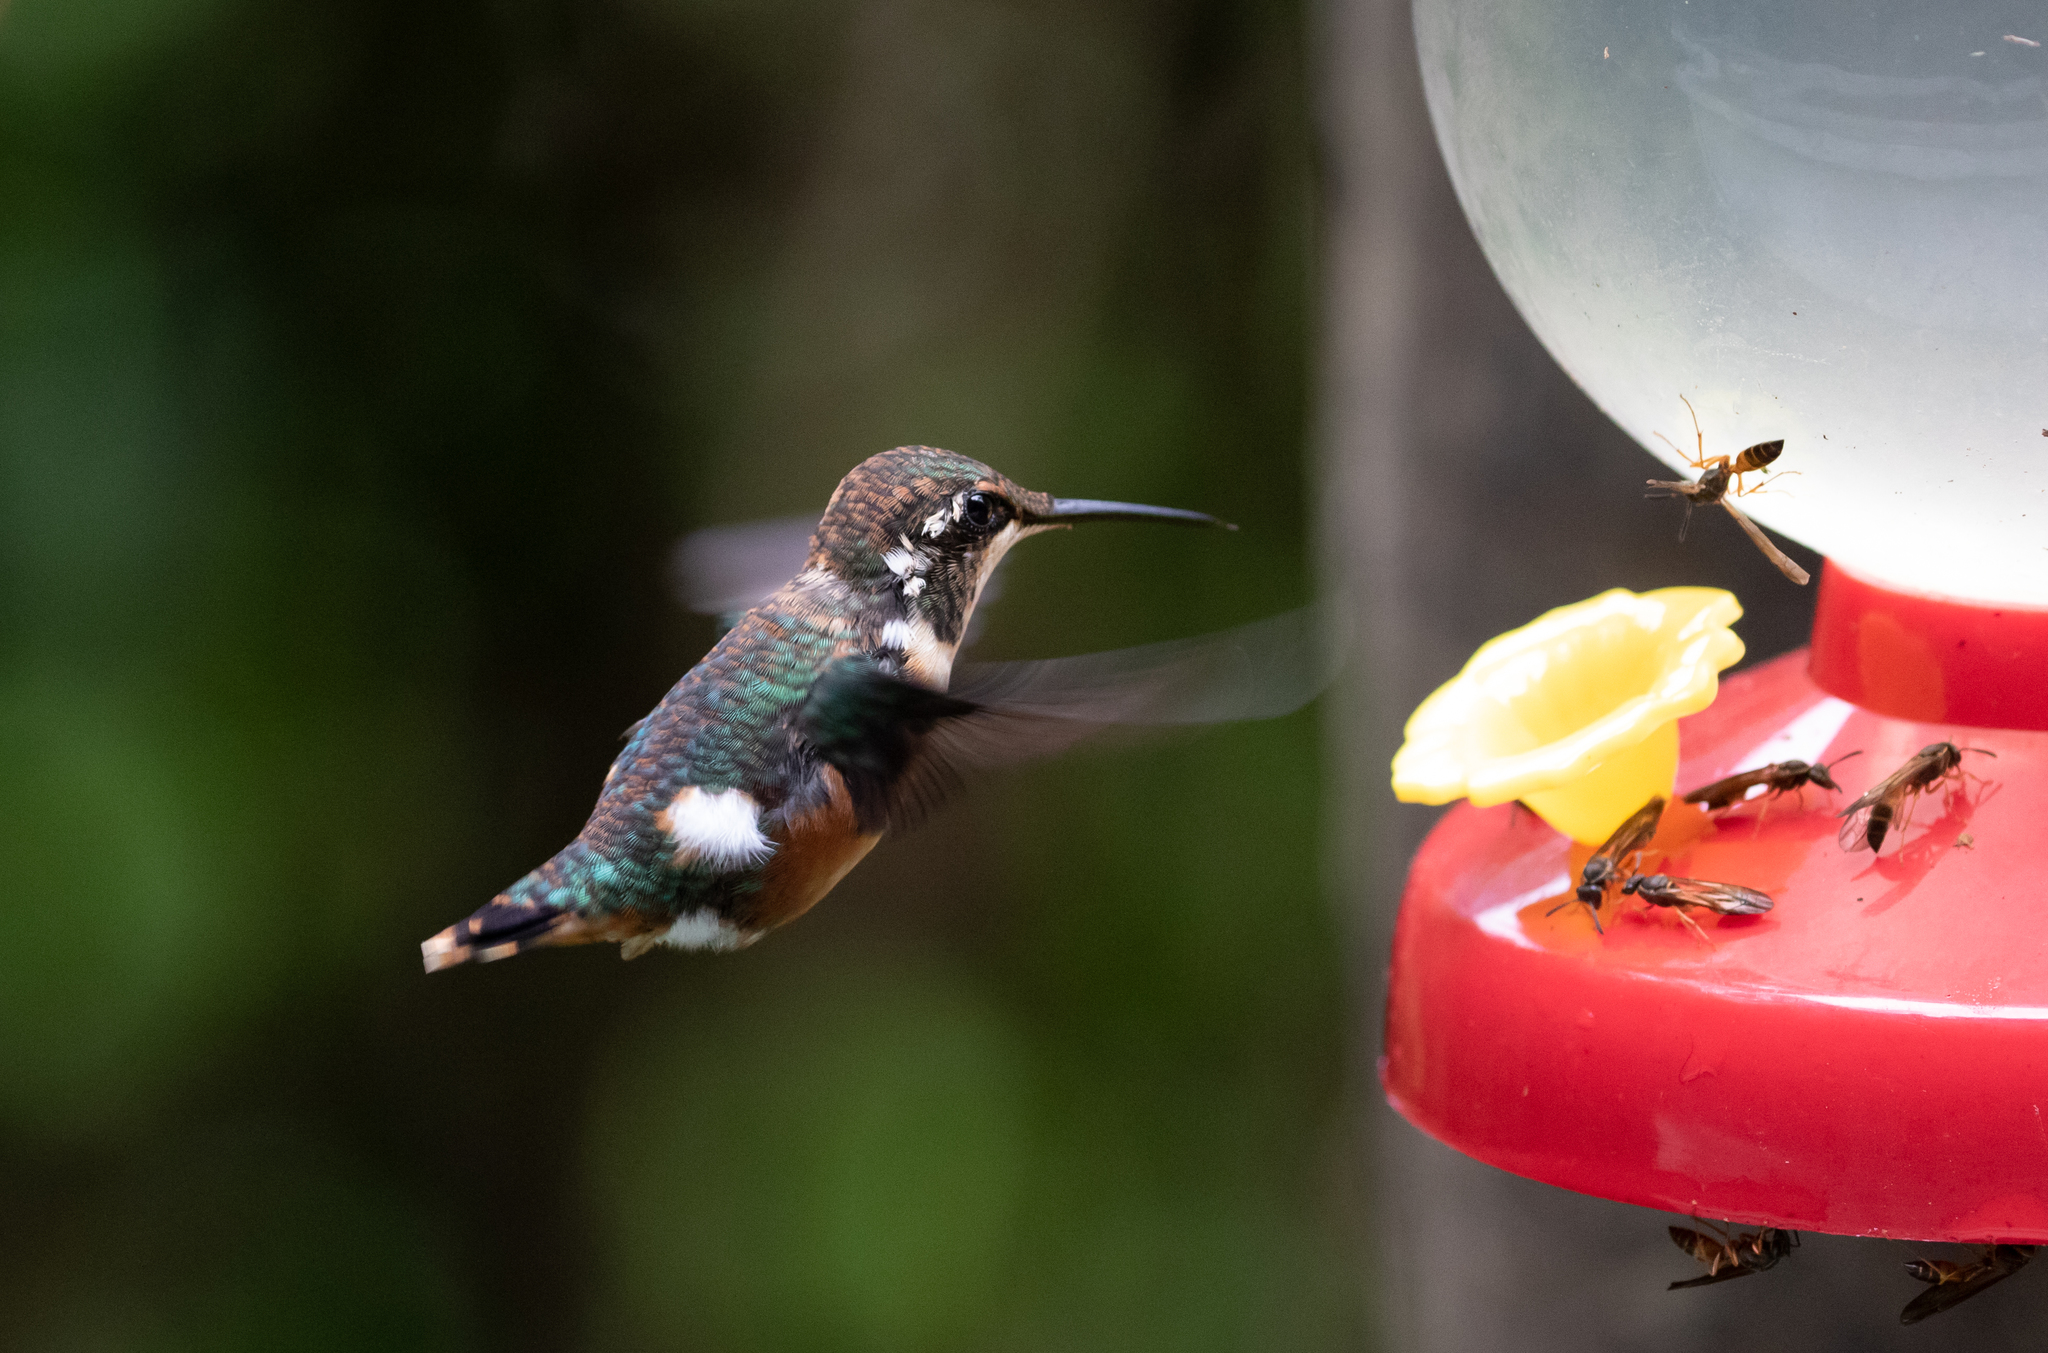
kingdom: Animalia
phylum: Chordata
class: Aves
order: Apodiformes
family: Trochilidae
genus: Chaetocercus
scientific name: Chaetocercus mulsant
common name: White-bellied woodstar
